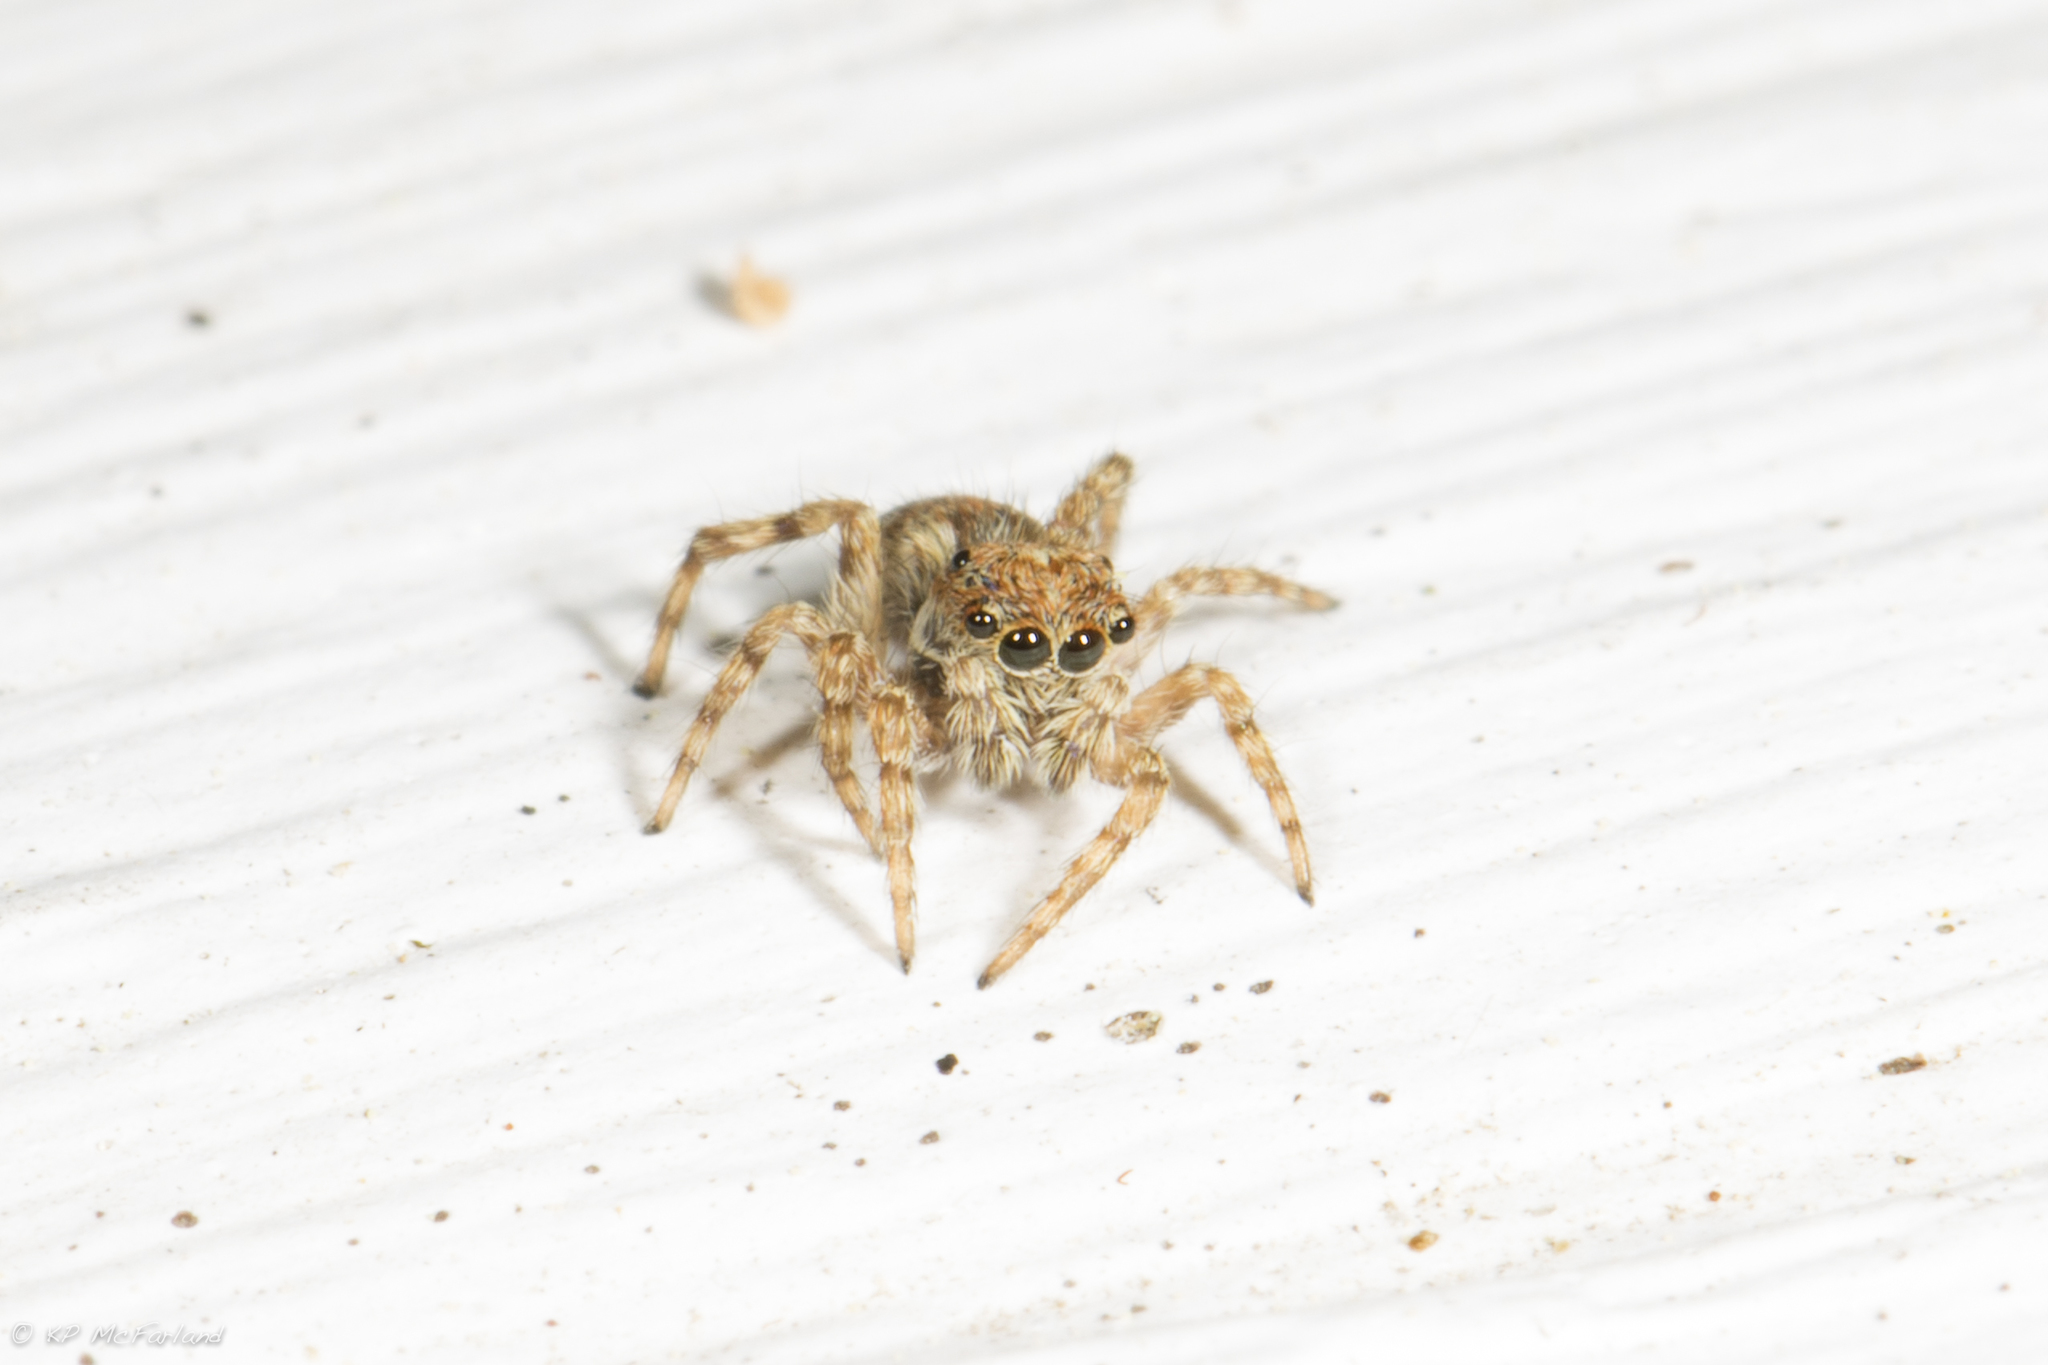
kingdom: Animalia
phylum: Arthropoda
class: Arachnida
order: Araneae
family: Salticidae
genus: Attulus
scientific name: Attulus fasciger
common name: Asiatic wall jumping spider
